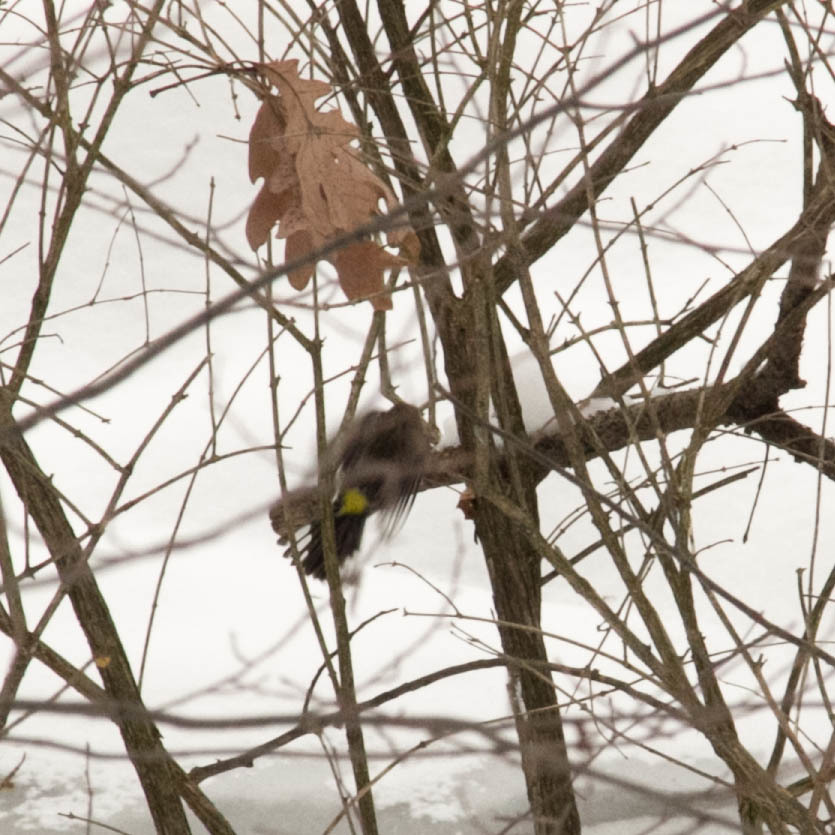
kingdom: Animalia
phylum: Chordata
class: Aves
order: Passeriformes
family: Parulidae
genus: Setophaga
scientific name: Setophaga coronata
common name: Myrtle warbler
